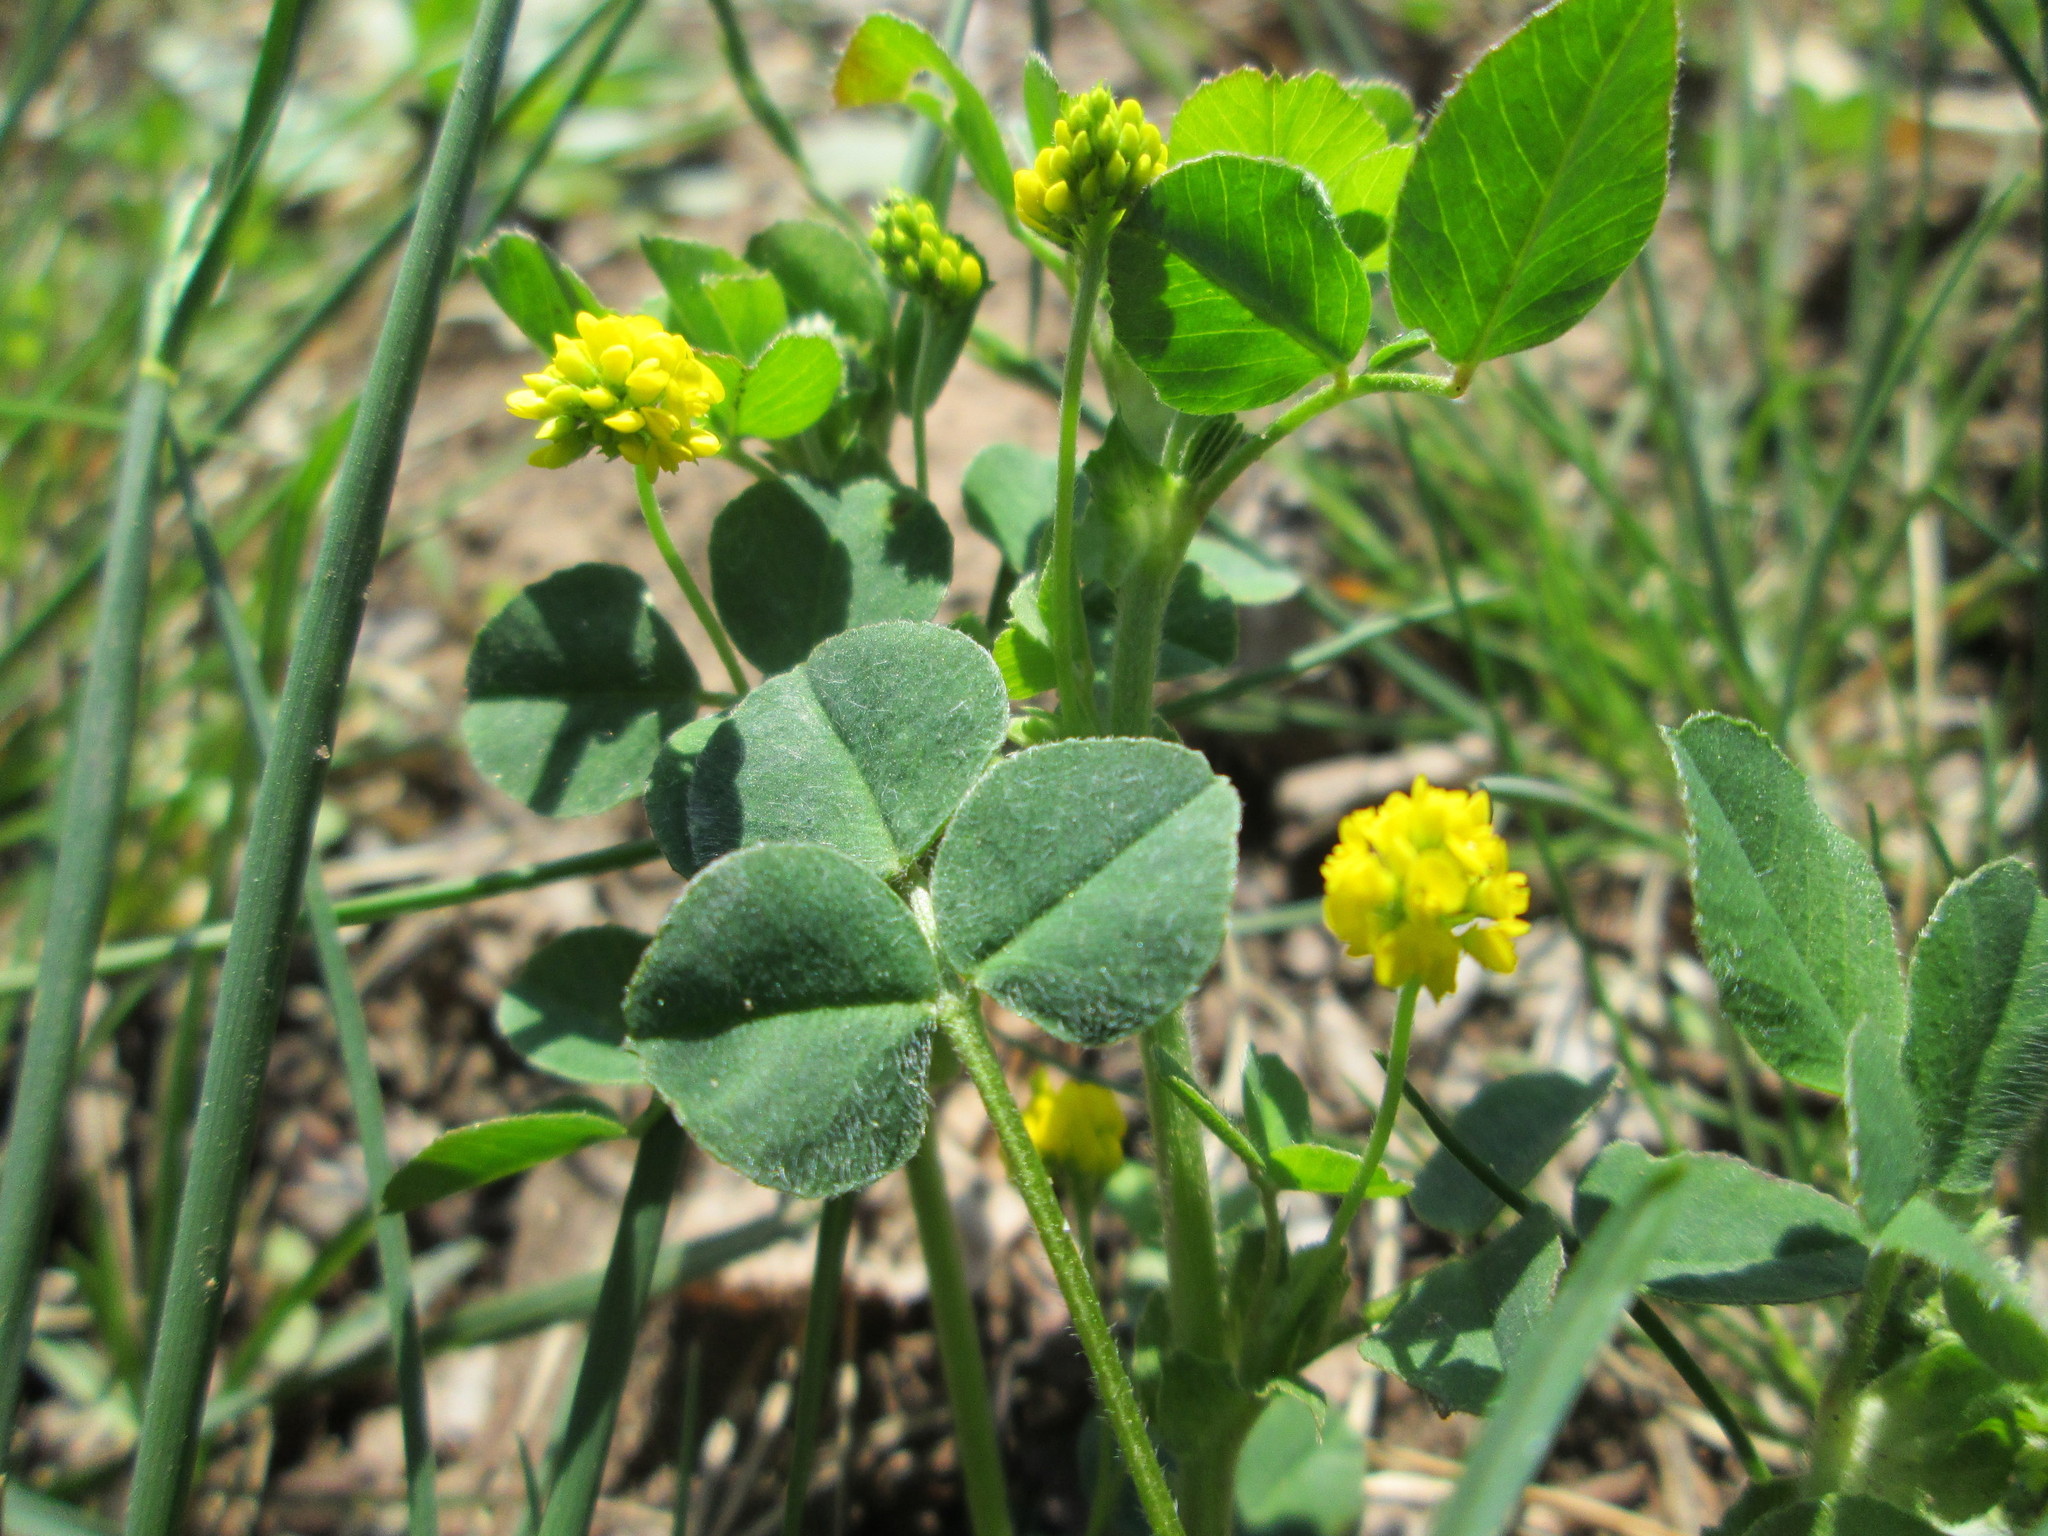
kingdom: Plantae
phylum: Tracheophyta
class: Magnoliopsida
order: Fabales
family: Fabaceae
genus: Medicago
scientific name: Medicago lupulina
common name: Black medick
